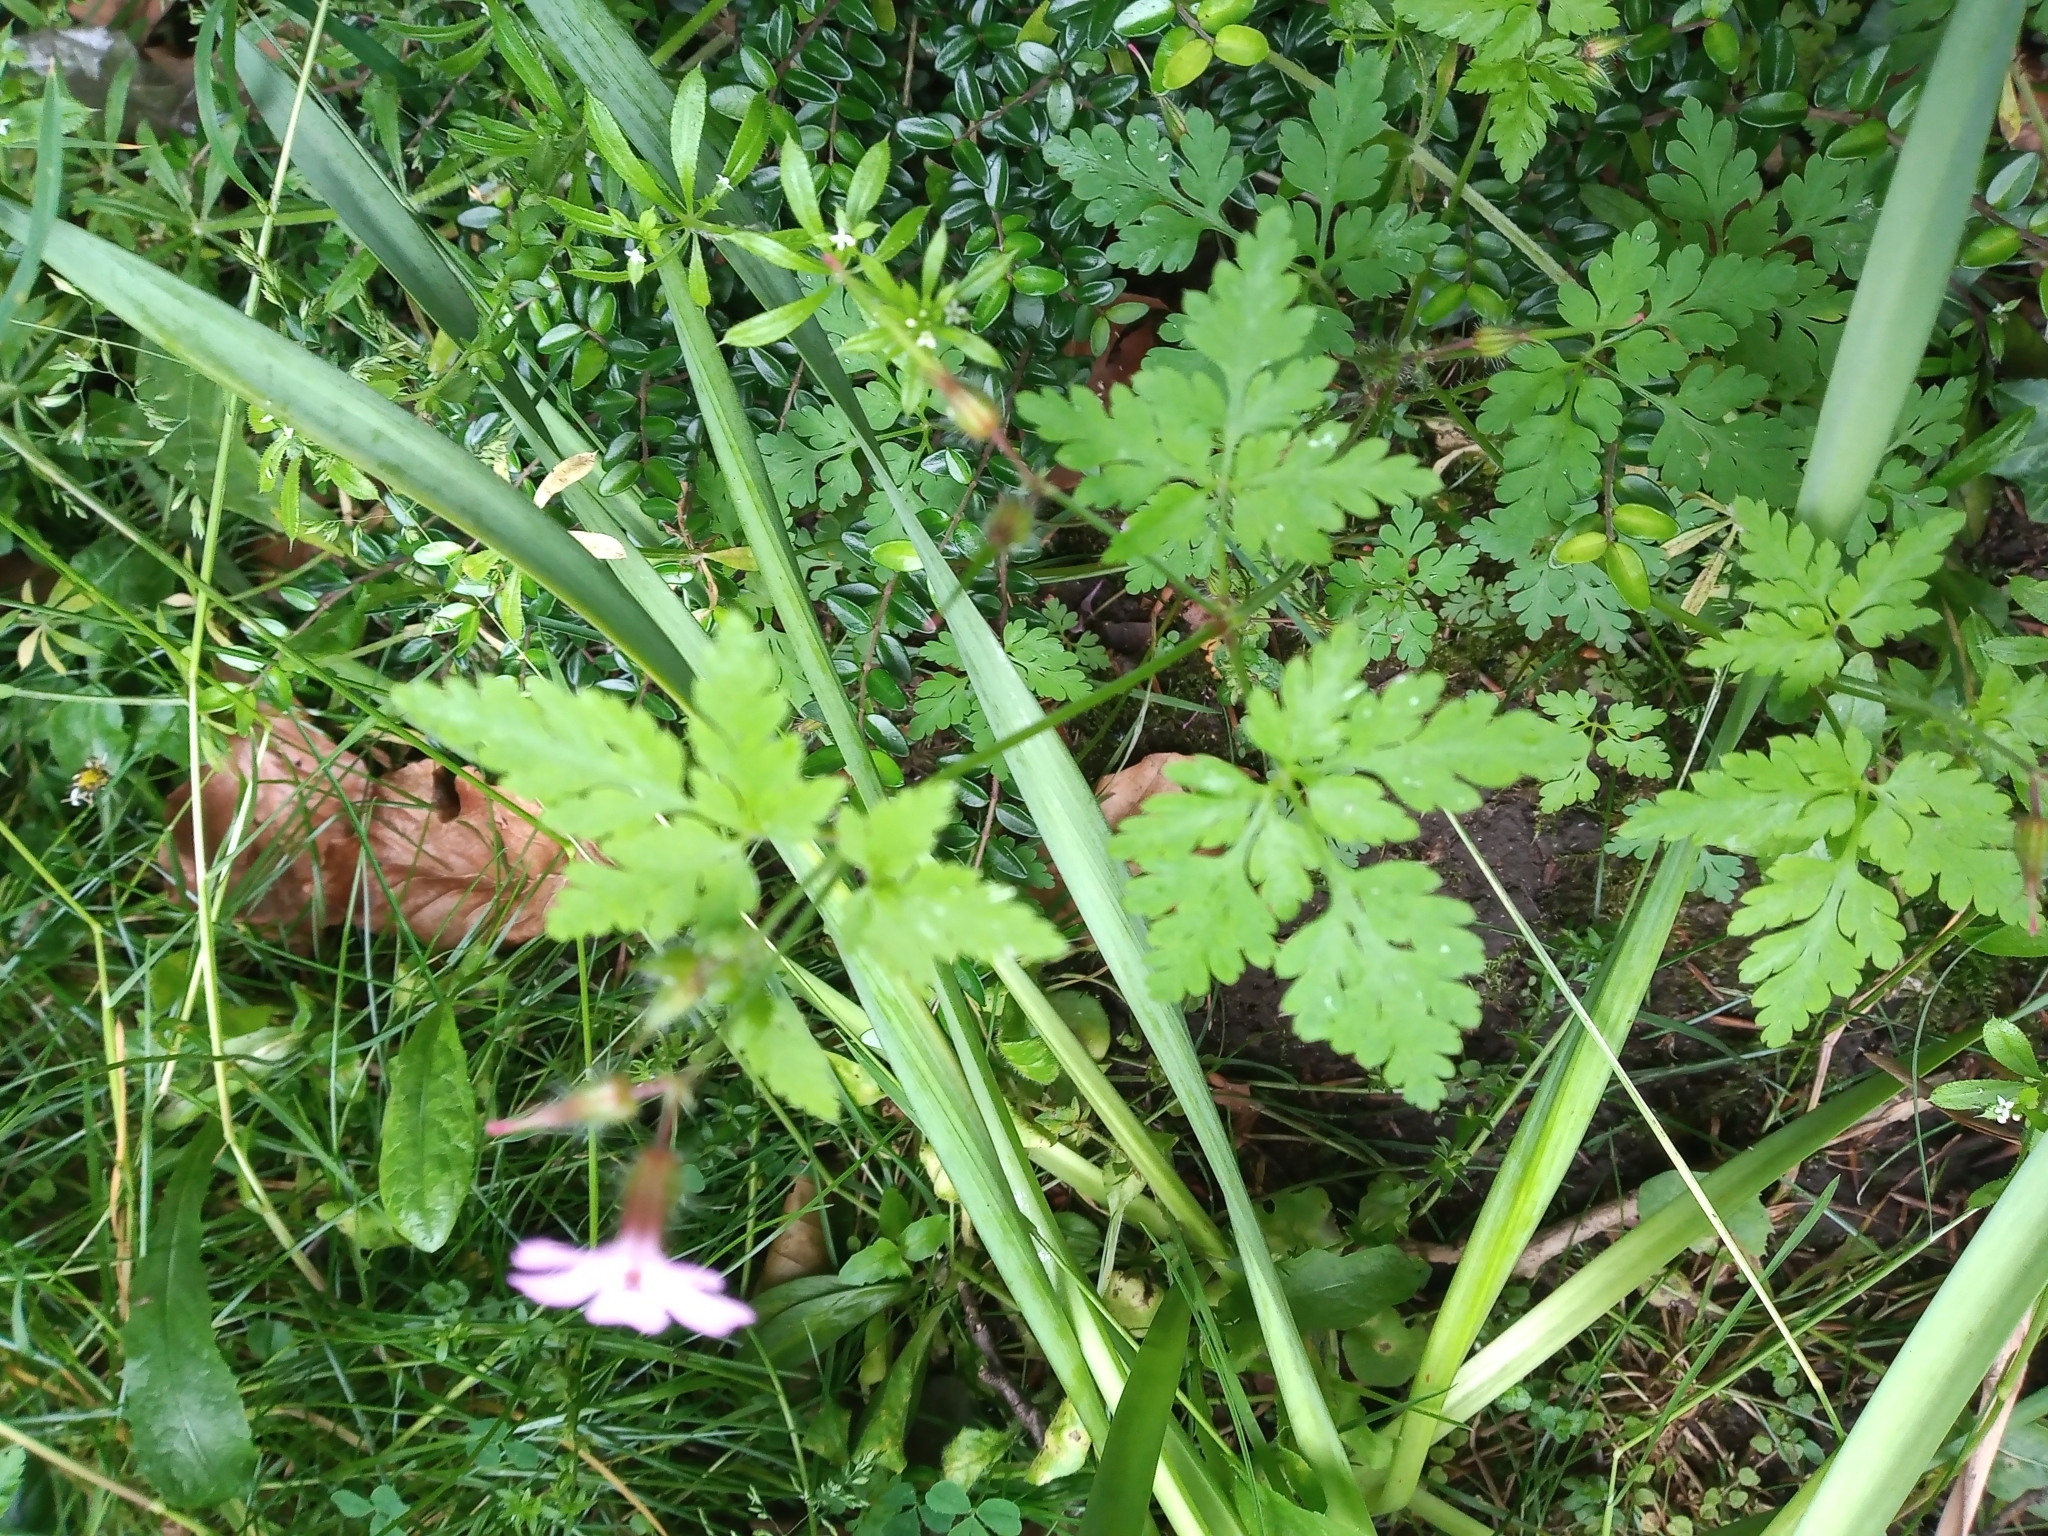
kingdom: Plantae
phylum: Tracheophyta
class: Magnoliopsida
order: Geraniales
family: Geraniaceae
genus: Geranium
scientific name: Geranium robertianum
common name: Herb-robert
